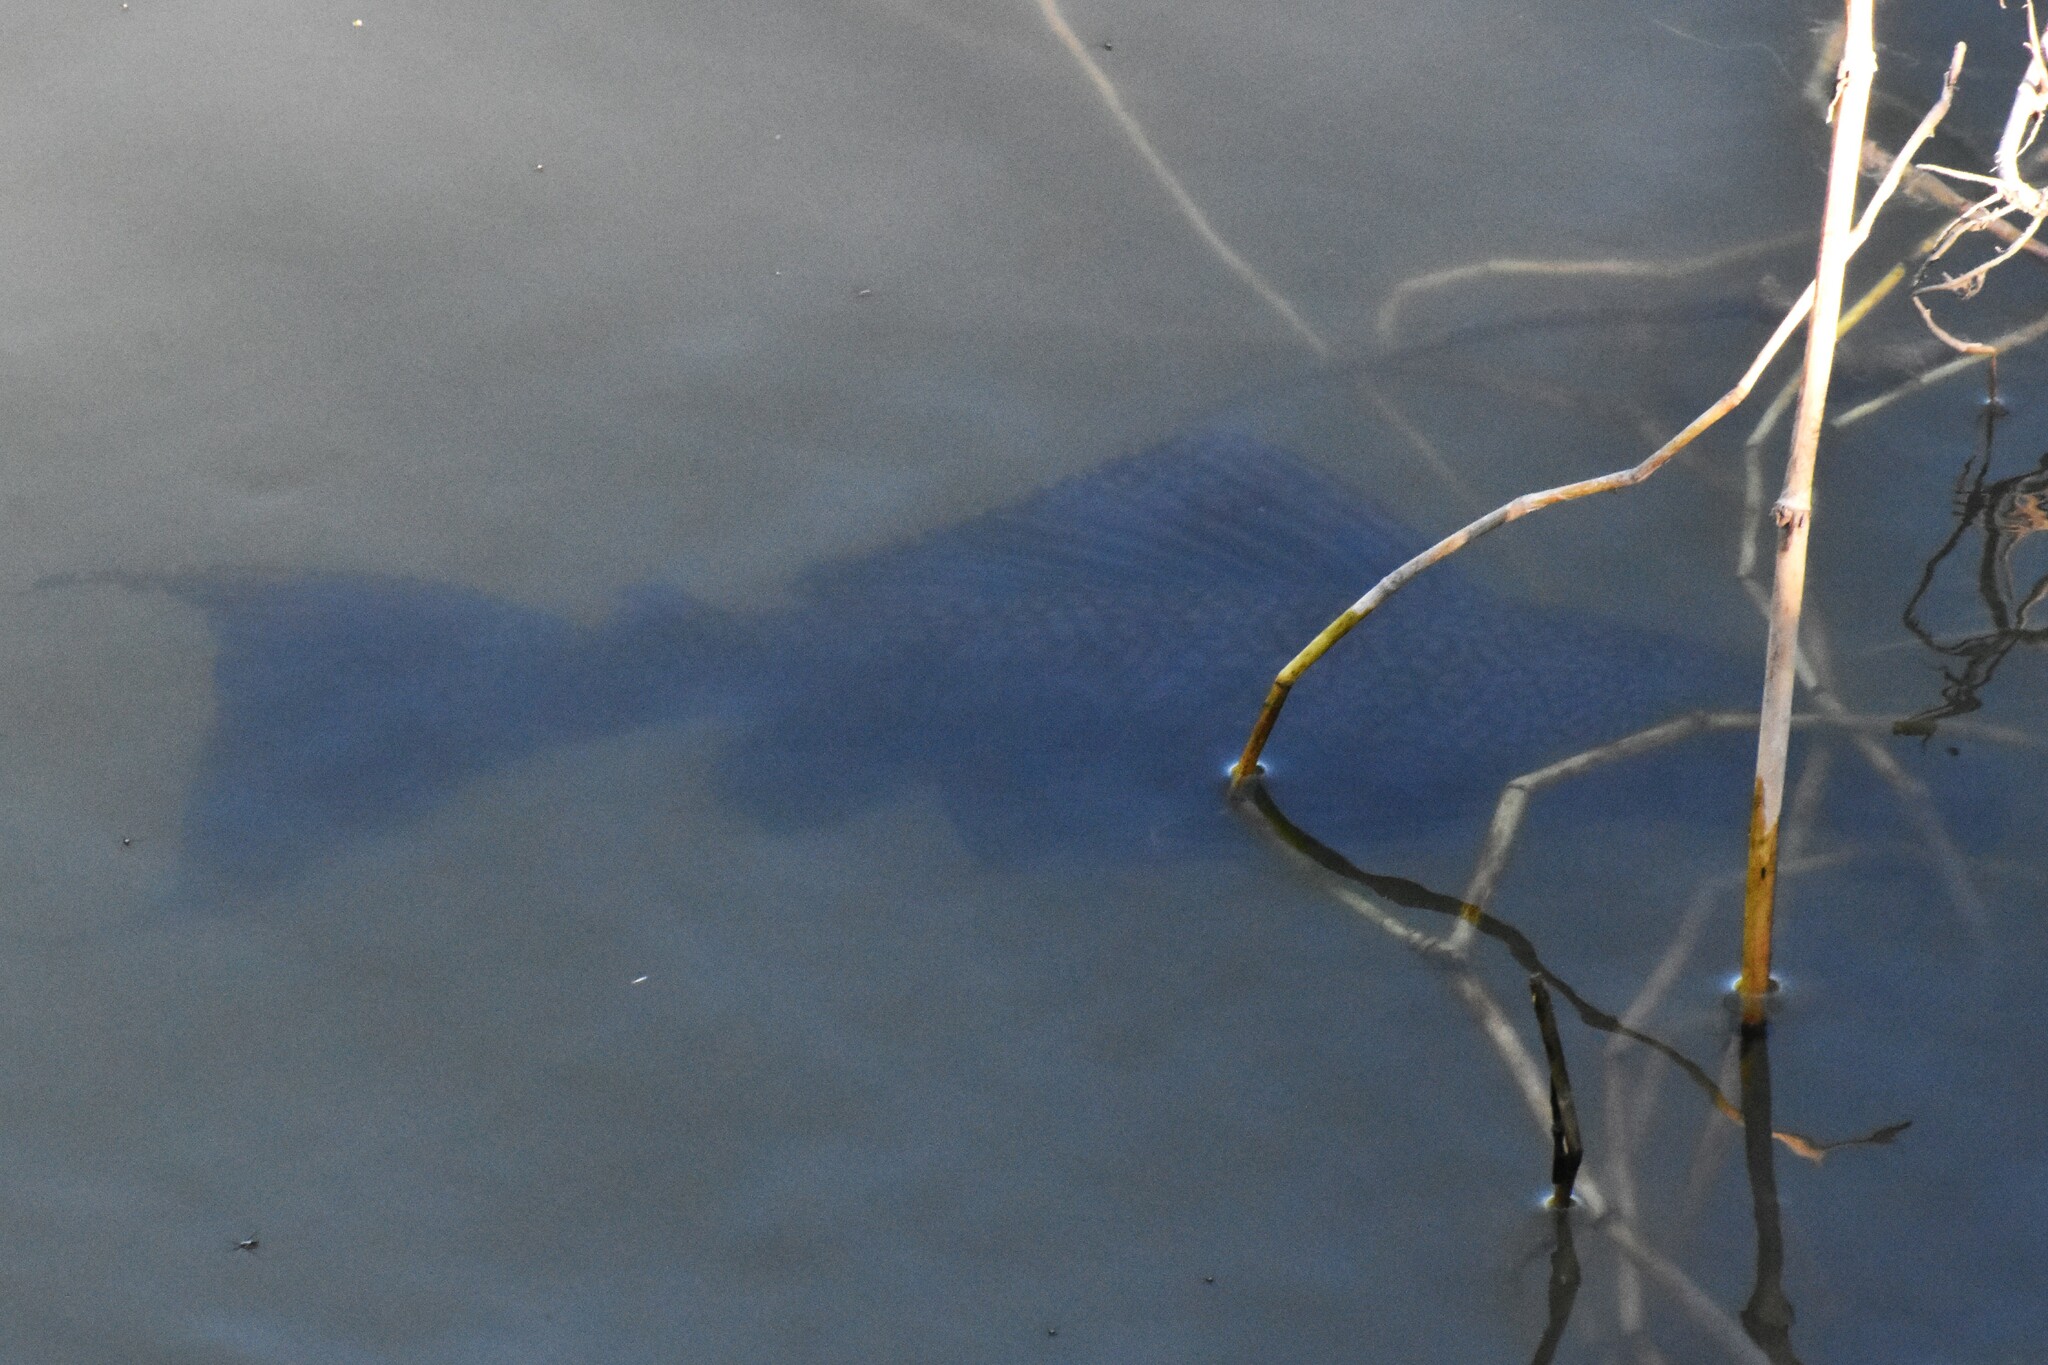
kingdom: Animalia
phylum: Chordata
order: Siluriformes
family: Loricariidae
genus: Pterygoplichthys
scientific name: Pterygoplichthys
